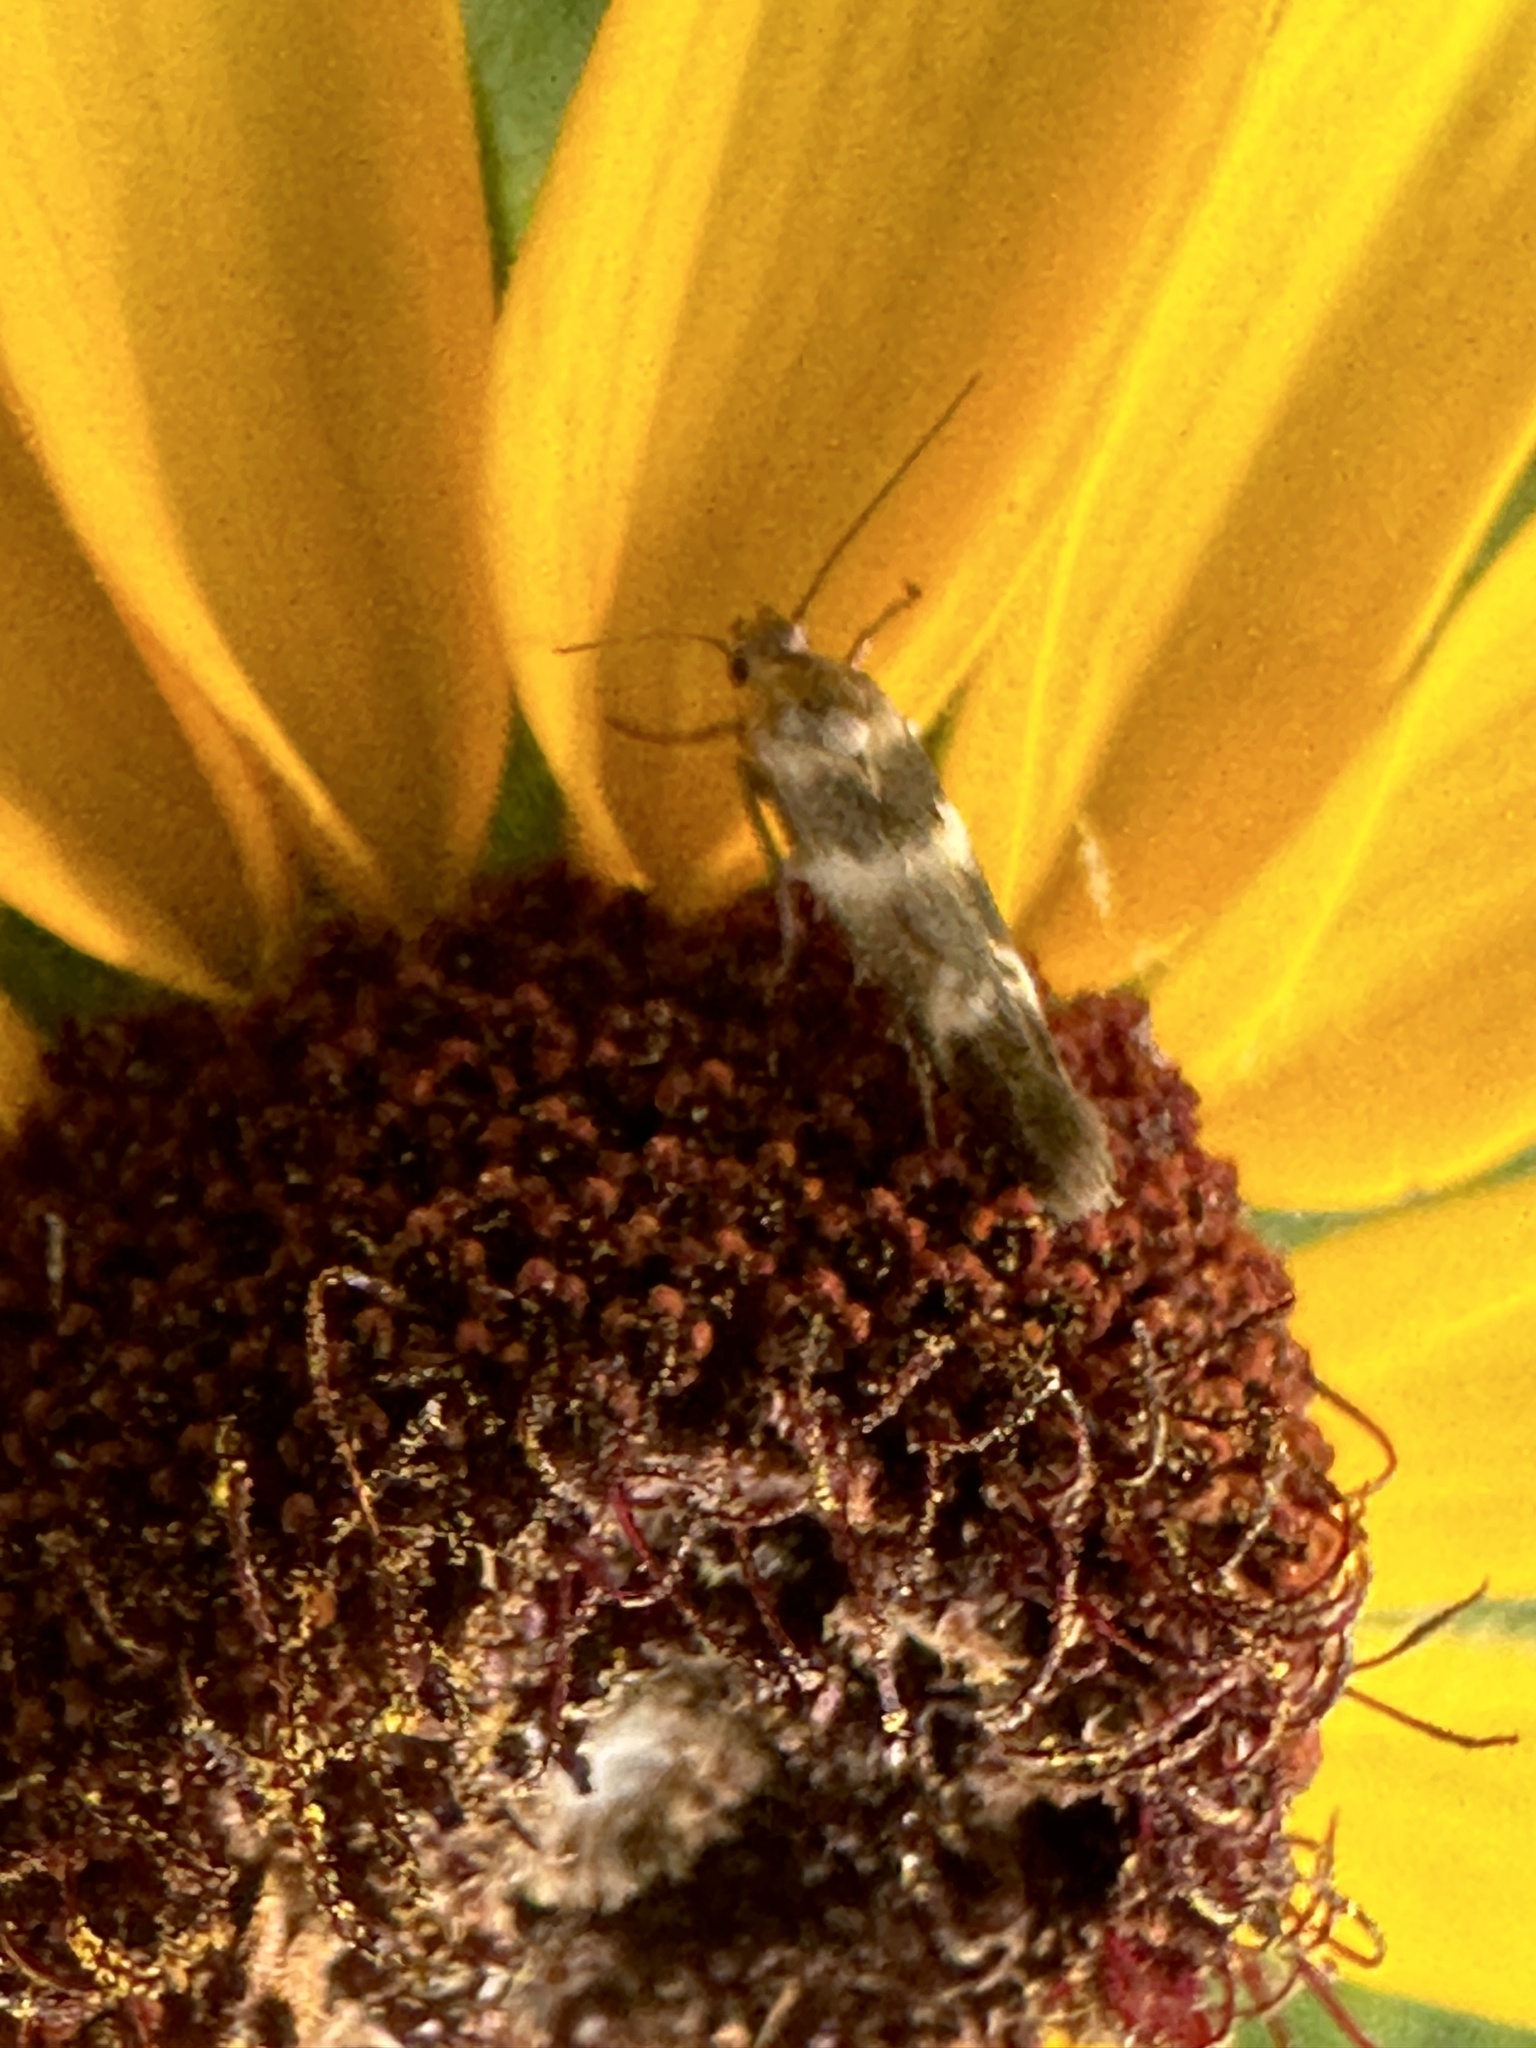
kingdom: Animalia
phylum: Arthropoda
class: Insecta
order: Lepidoptera
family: Scythrididae
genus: Scythris
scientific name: Scythris trivinctella
